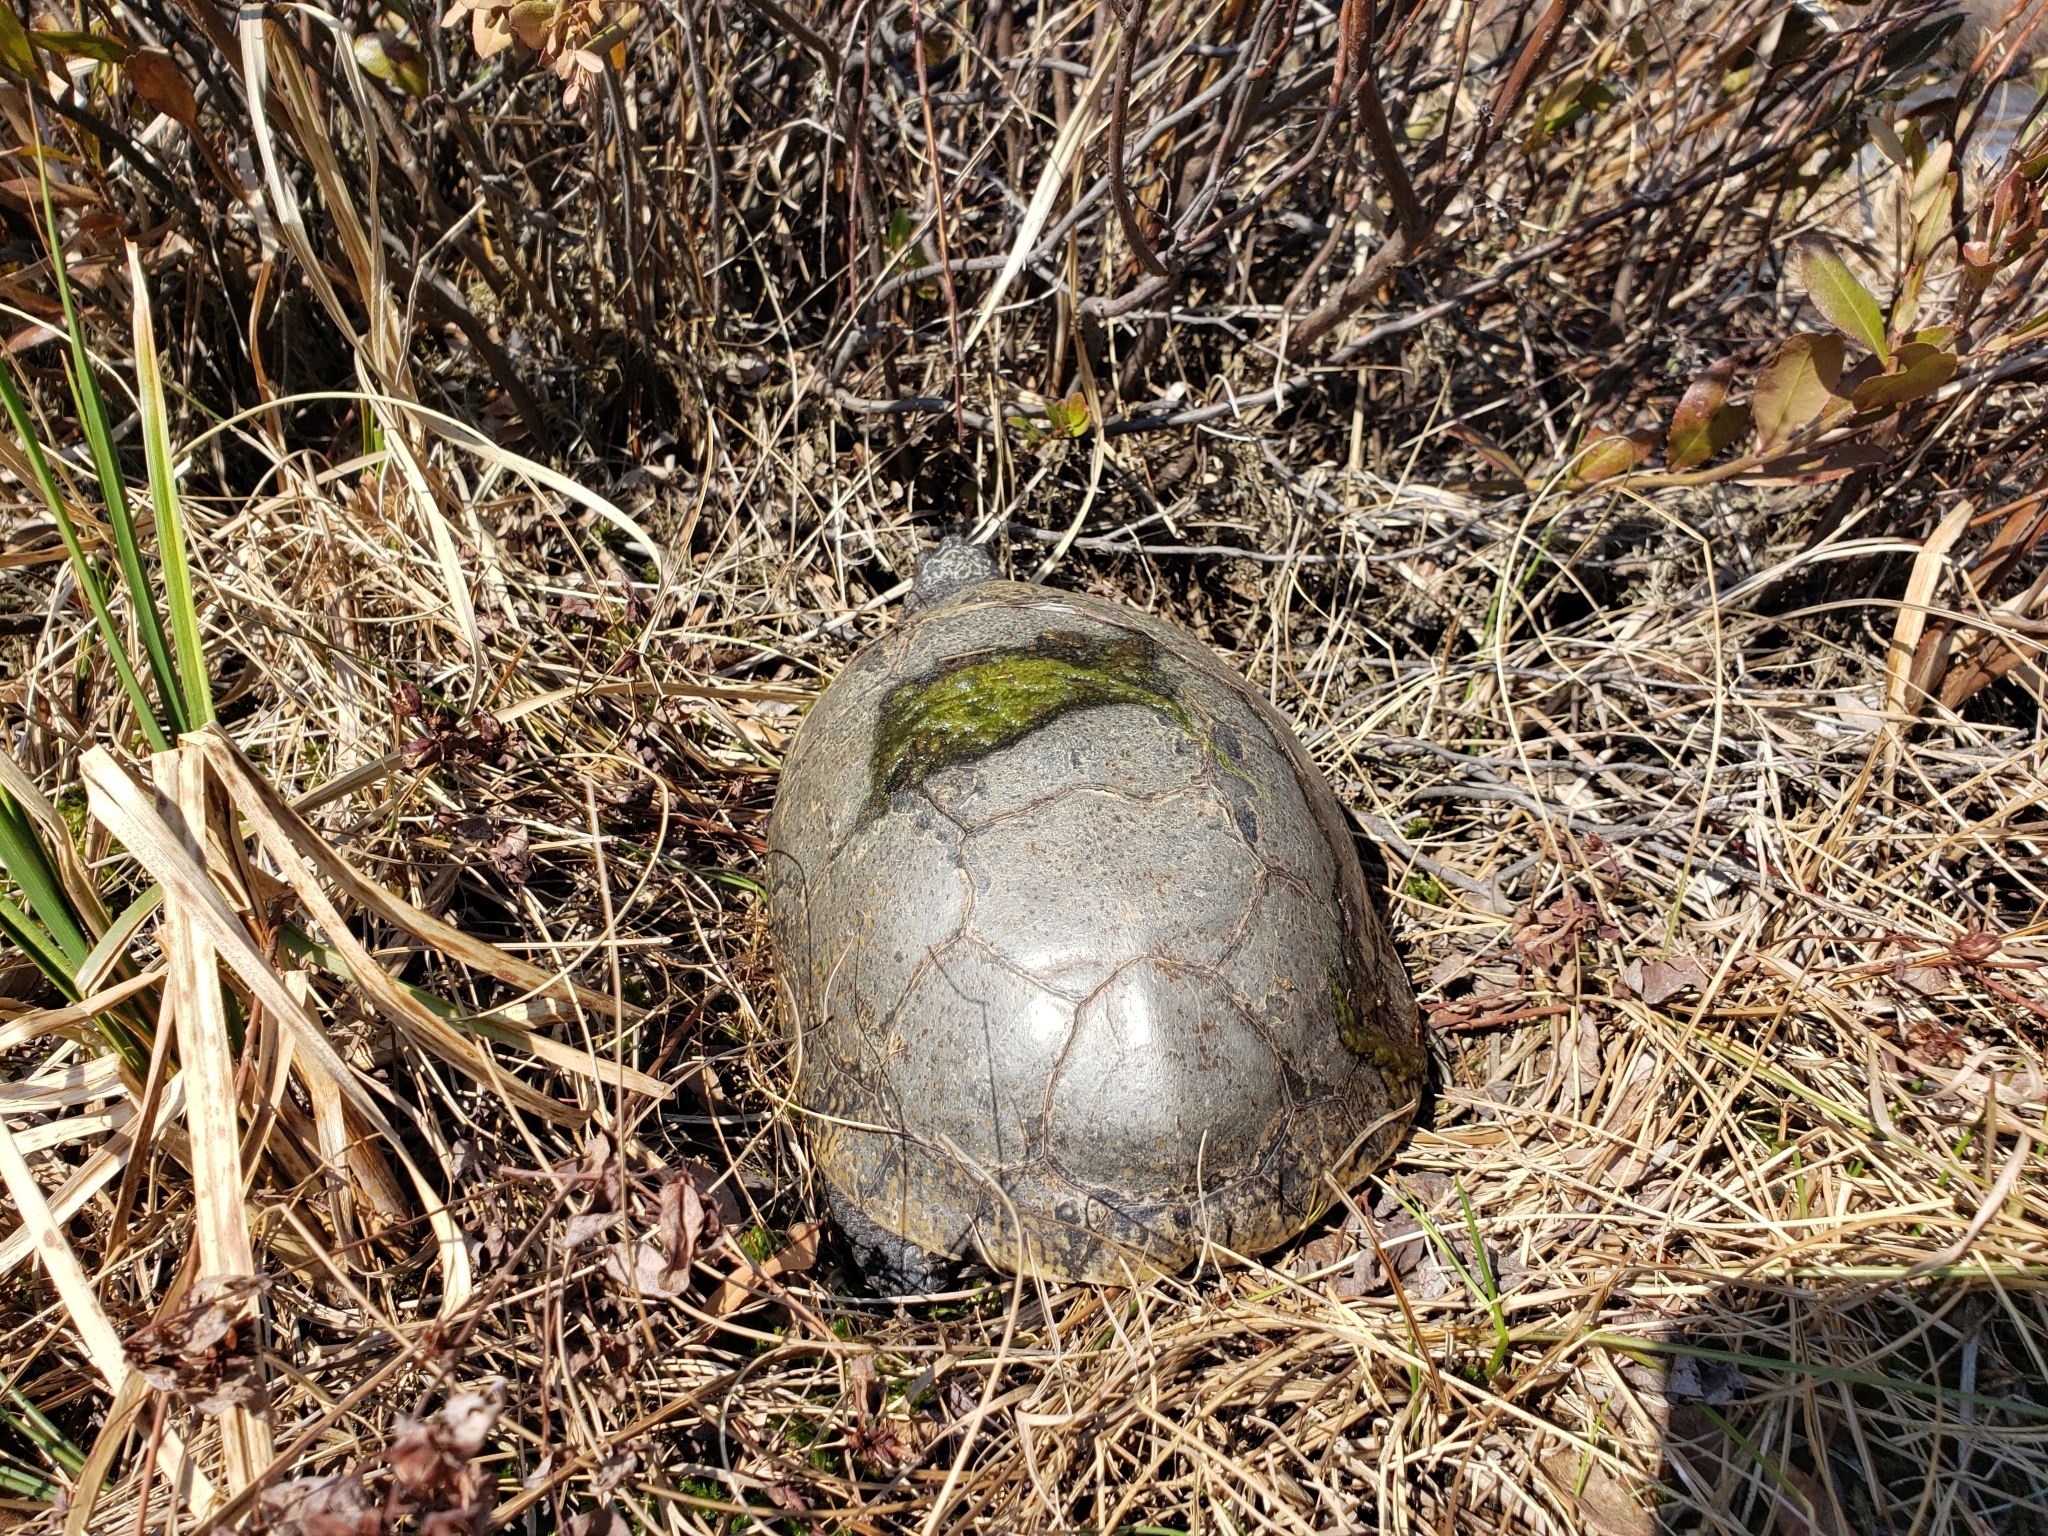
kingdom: Animalia
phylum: Chordata
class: Testudines
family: Emydidae
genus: Emys
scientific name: Emys blandingii
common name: Blanding's turtle
